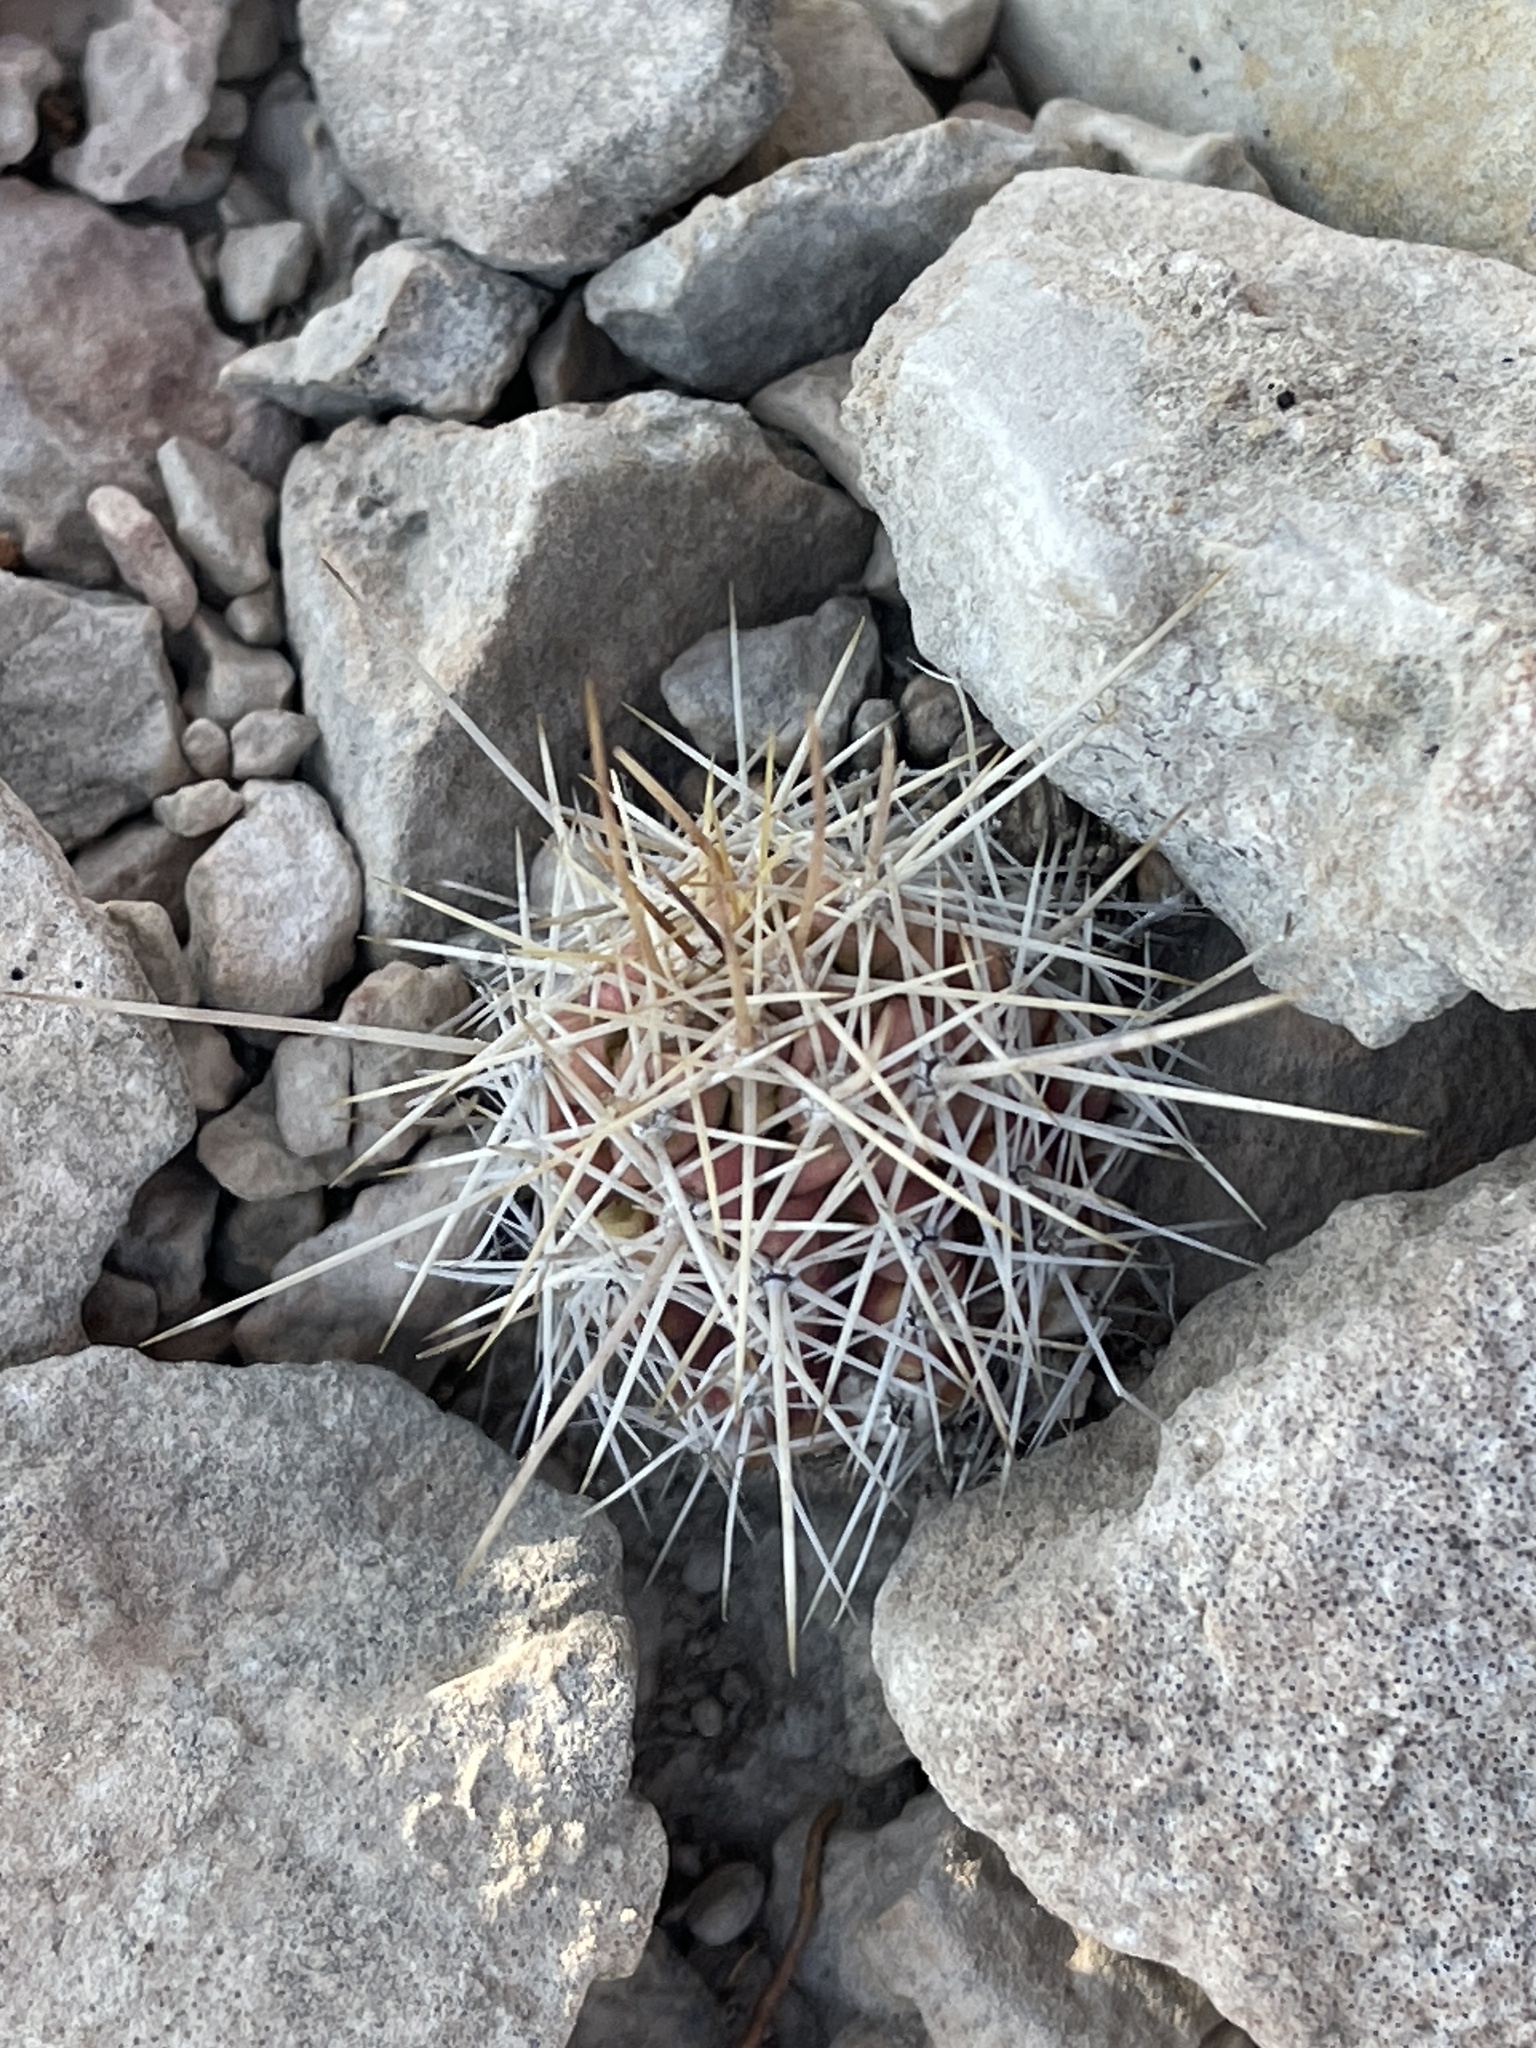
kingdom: Plantae
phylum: Tracheophyta
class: Magnoliopsida
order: Caryophyllales
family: Cactaceae
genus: Echinocereus
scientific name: Echinocereus enneacanthus
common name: Pitaya
